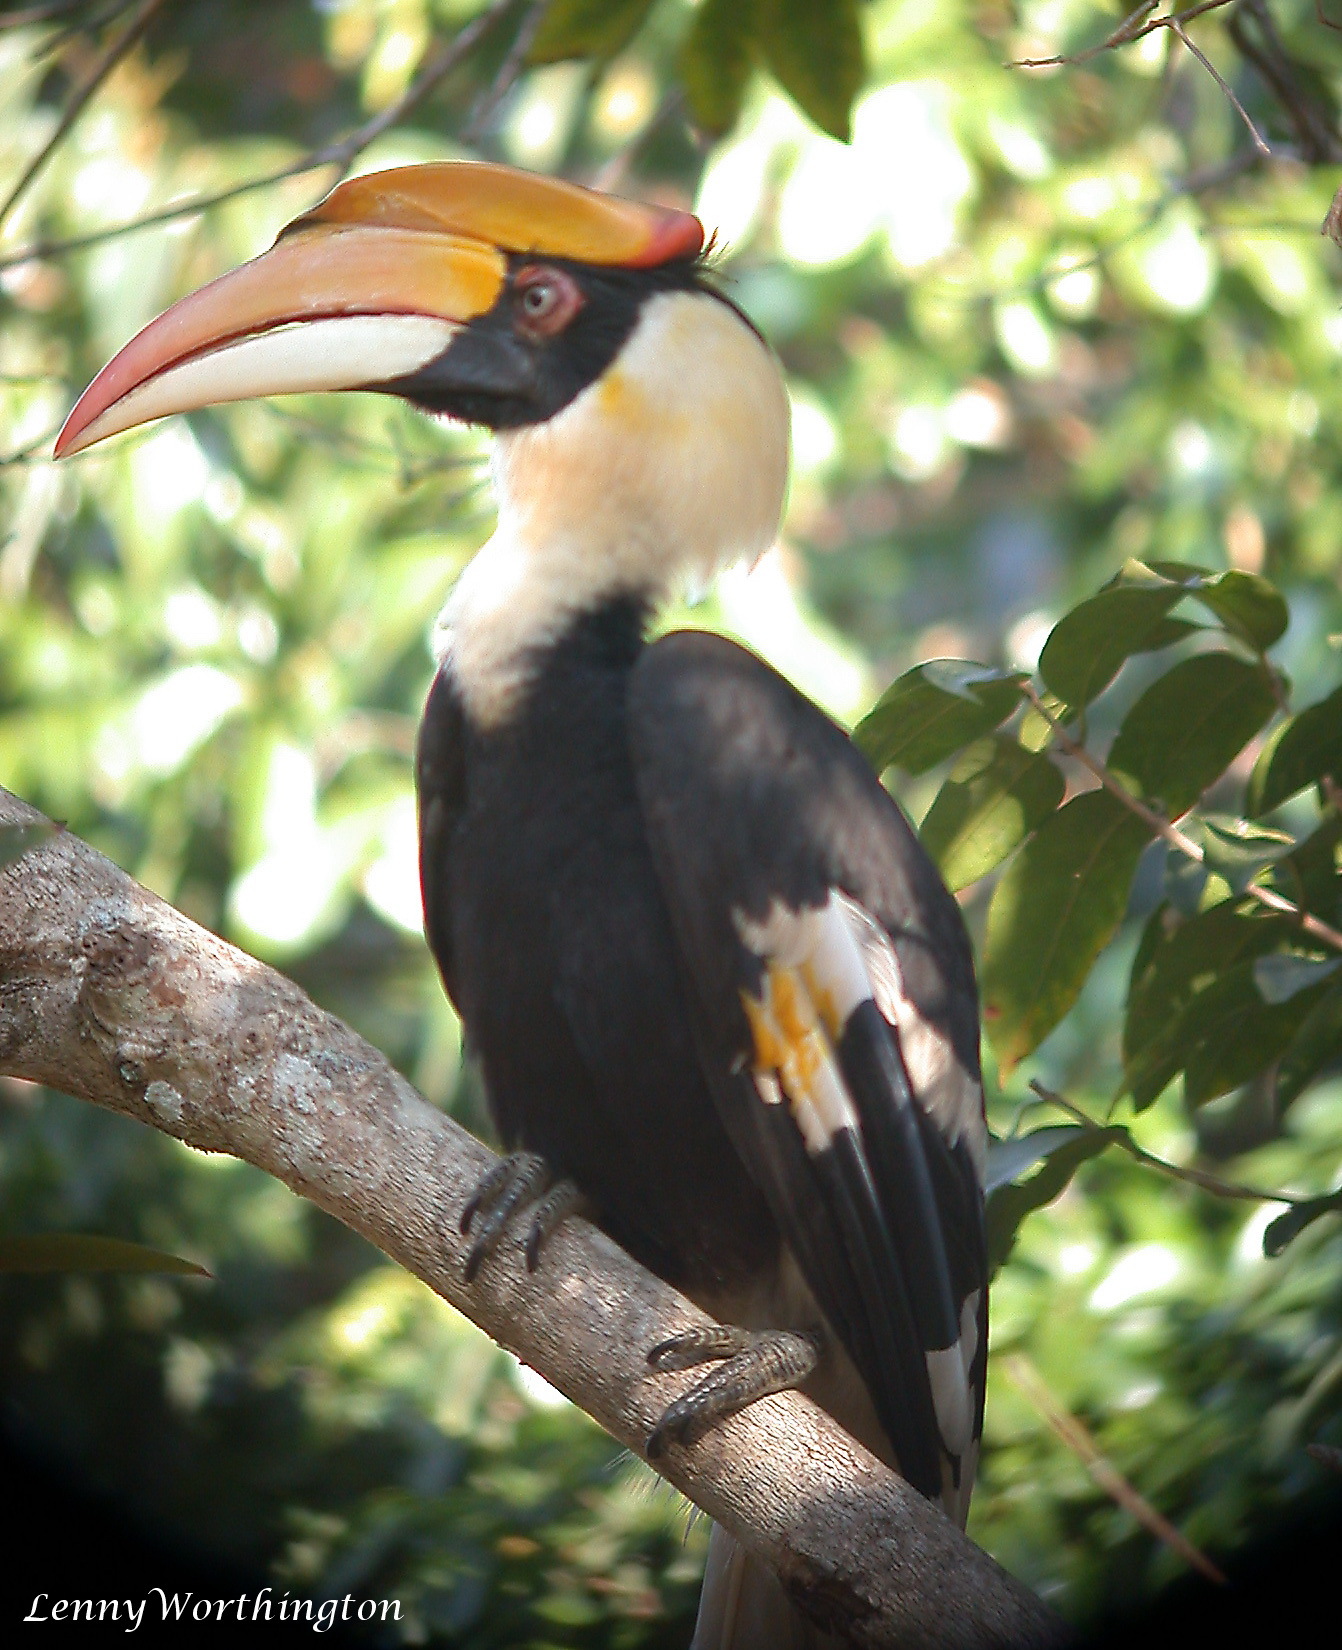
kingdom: Animalia
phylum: Chordata
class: Aves
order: Bucerotiformes
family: Bucerotidae
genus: Buceros
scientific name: Buceros bicornis
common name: Great hornbill
